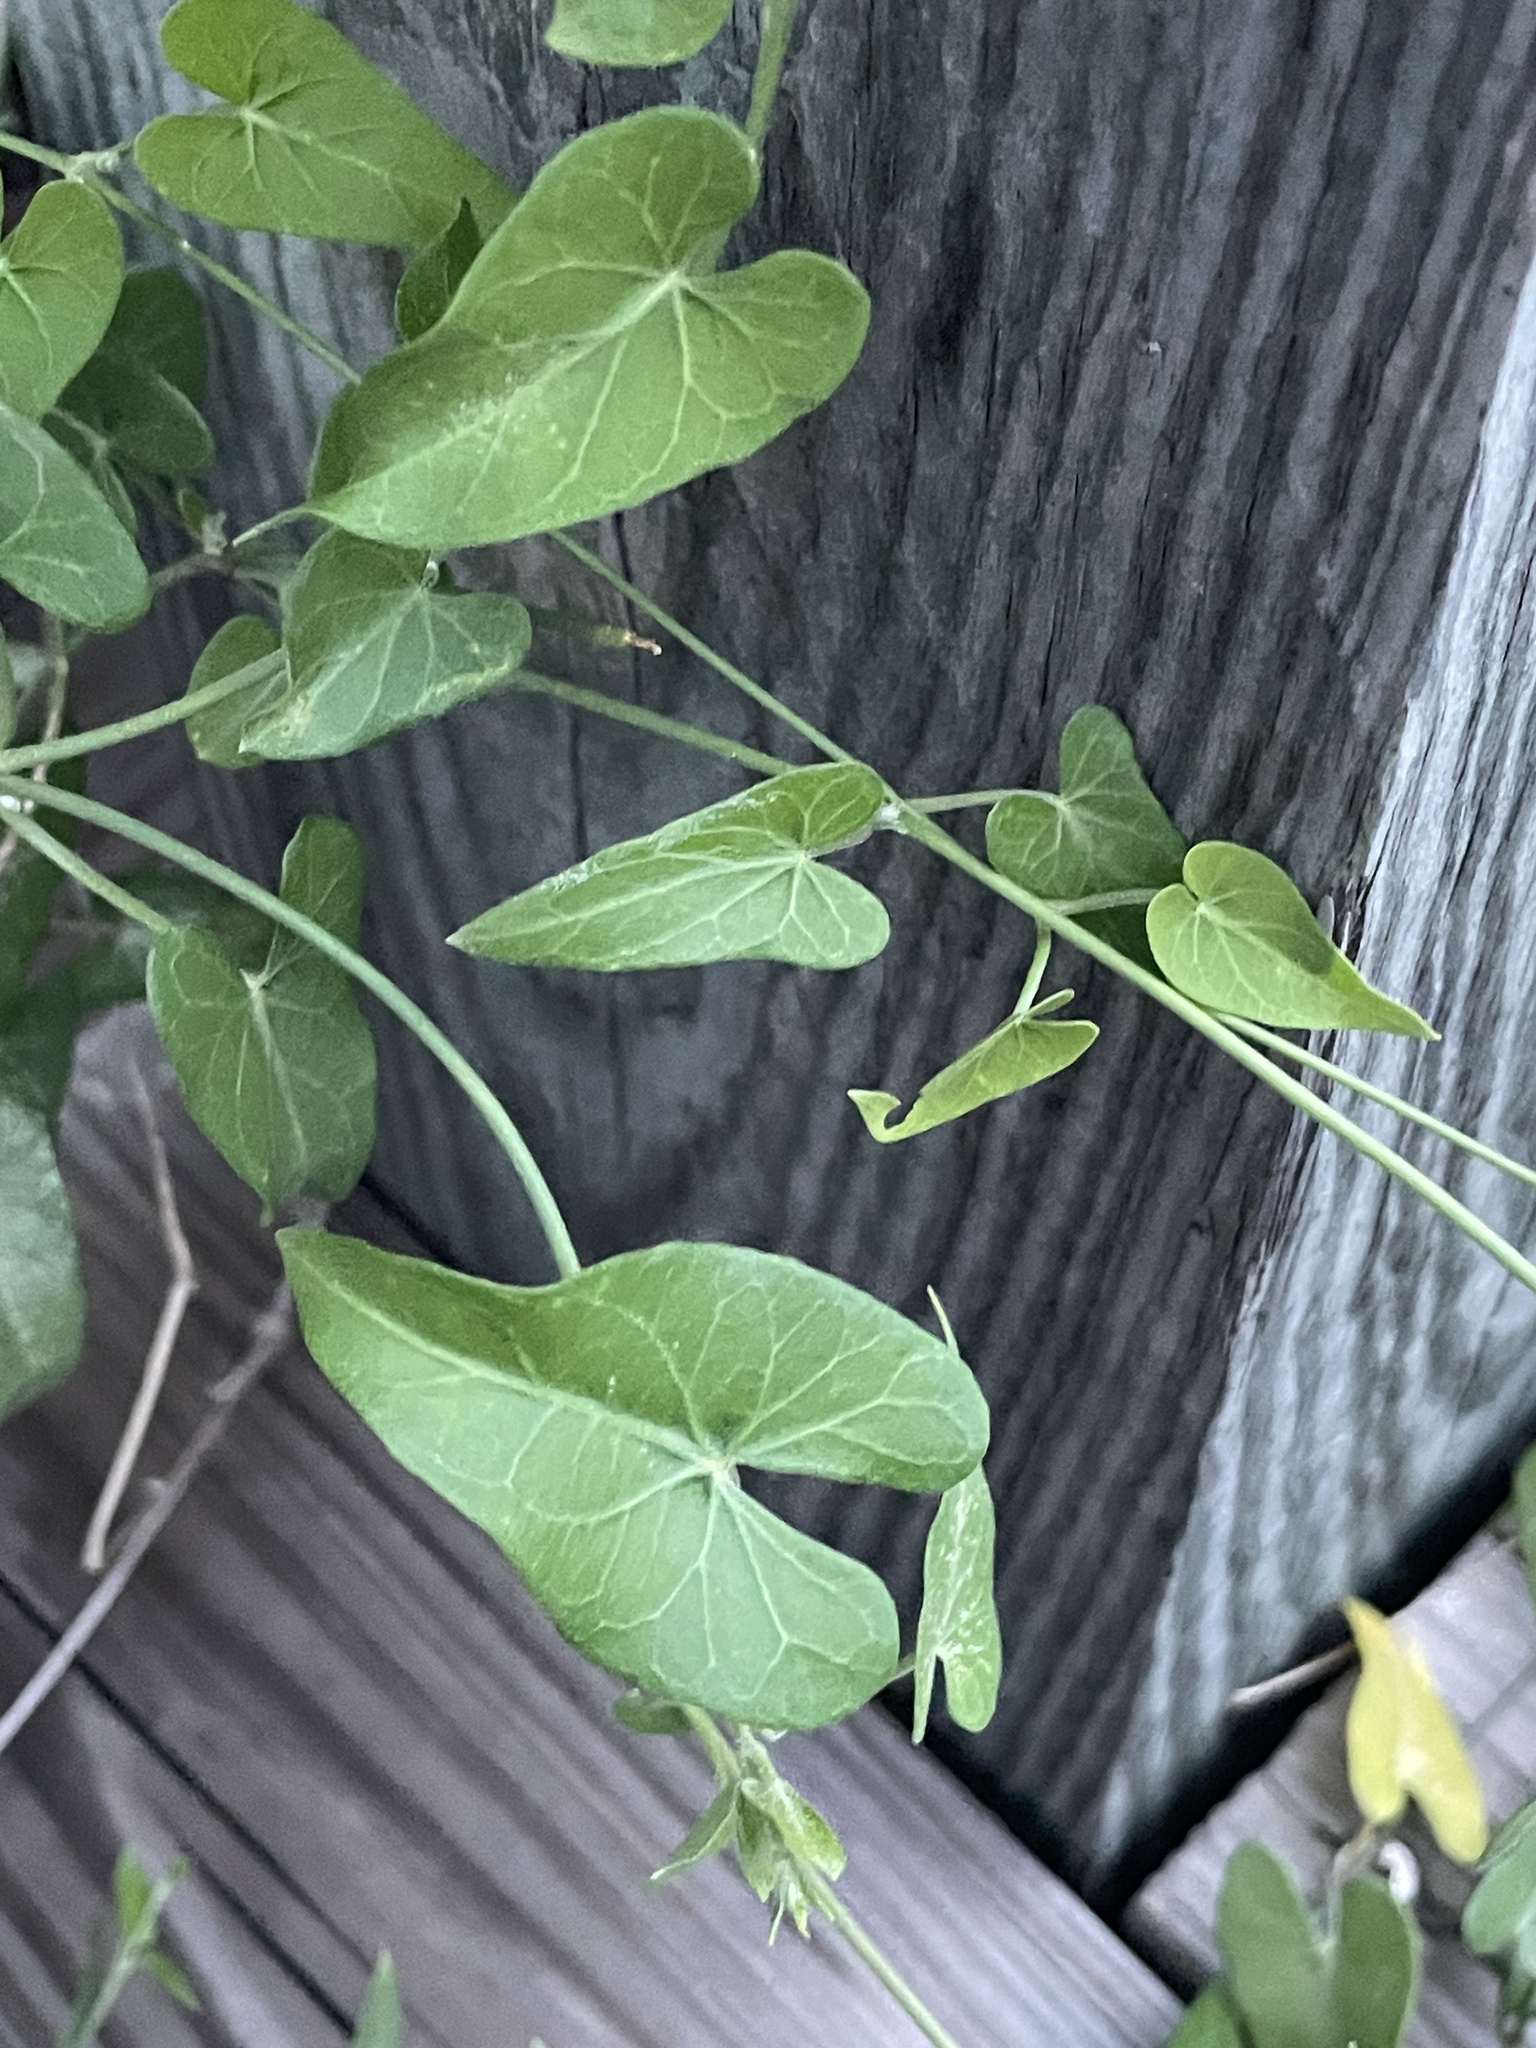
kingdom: Plantae
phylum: Tracheophyta
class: Magnoliopsida
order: Gentianales
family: Apocynaceae
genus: Funastrum
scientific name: Funastrum cynanchoides
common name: Climbing-milkweed
